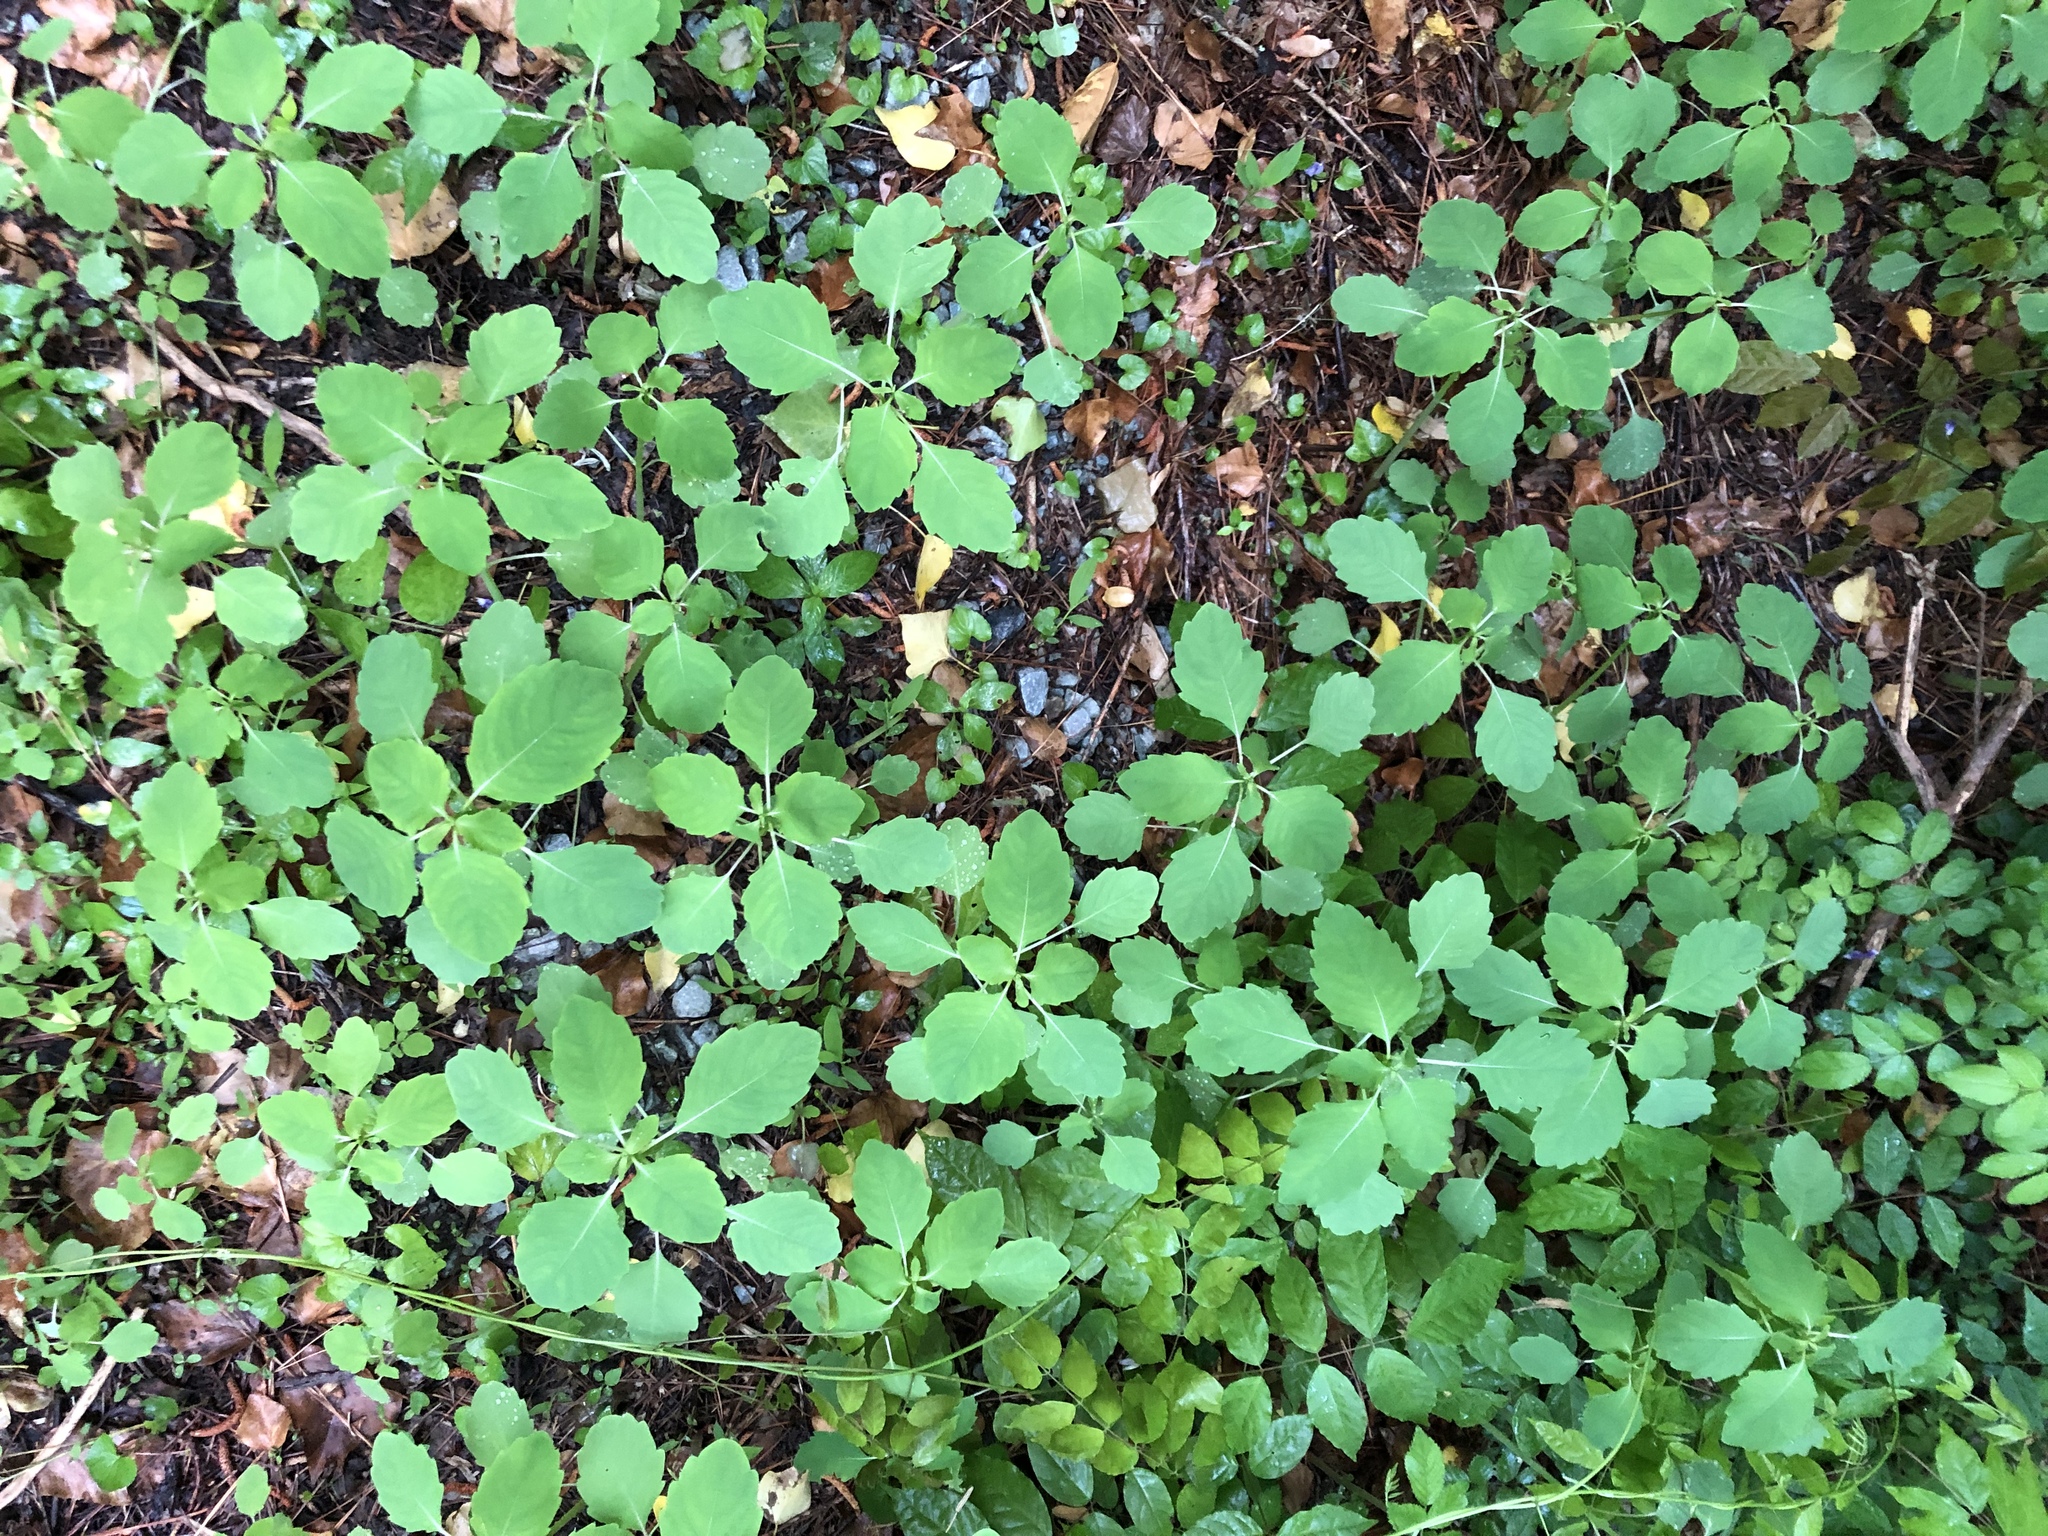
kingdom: Plantae
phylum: Tracheophyta
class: Magnoliopsida
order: Ericales
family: Balsaminaceae
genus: Impatiens
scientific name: Impatiens capensis
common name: Orange balsam
